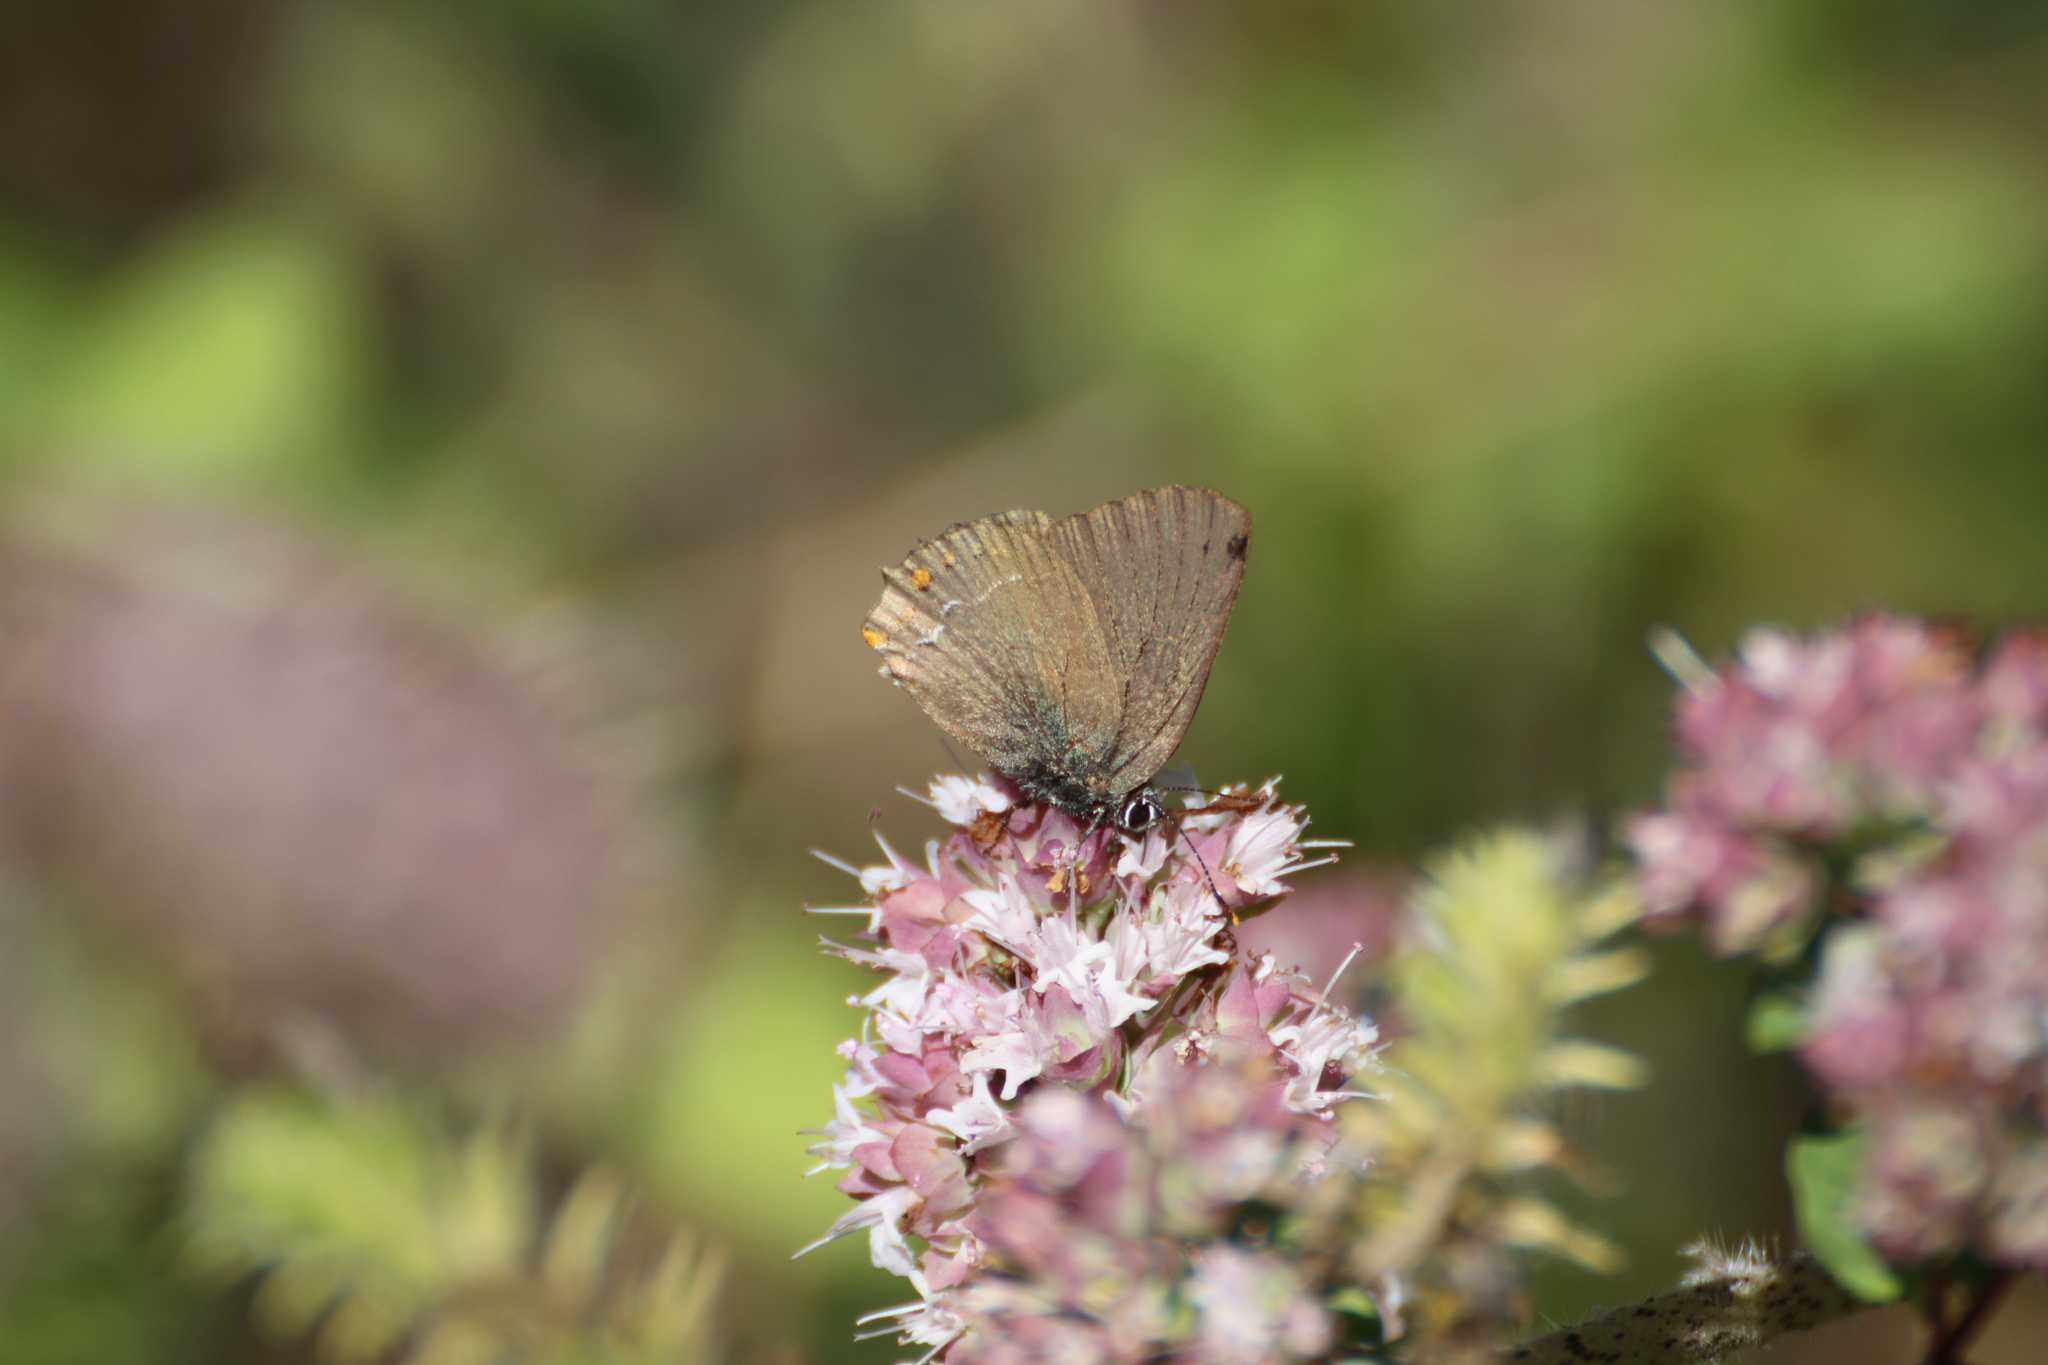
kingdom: Animalia
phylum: Arthropoda
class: Insecta
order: Lepidoptera
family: Lycaenidae
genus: Fixsenia
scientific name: Fixsenia esculi
